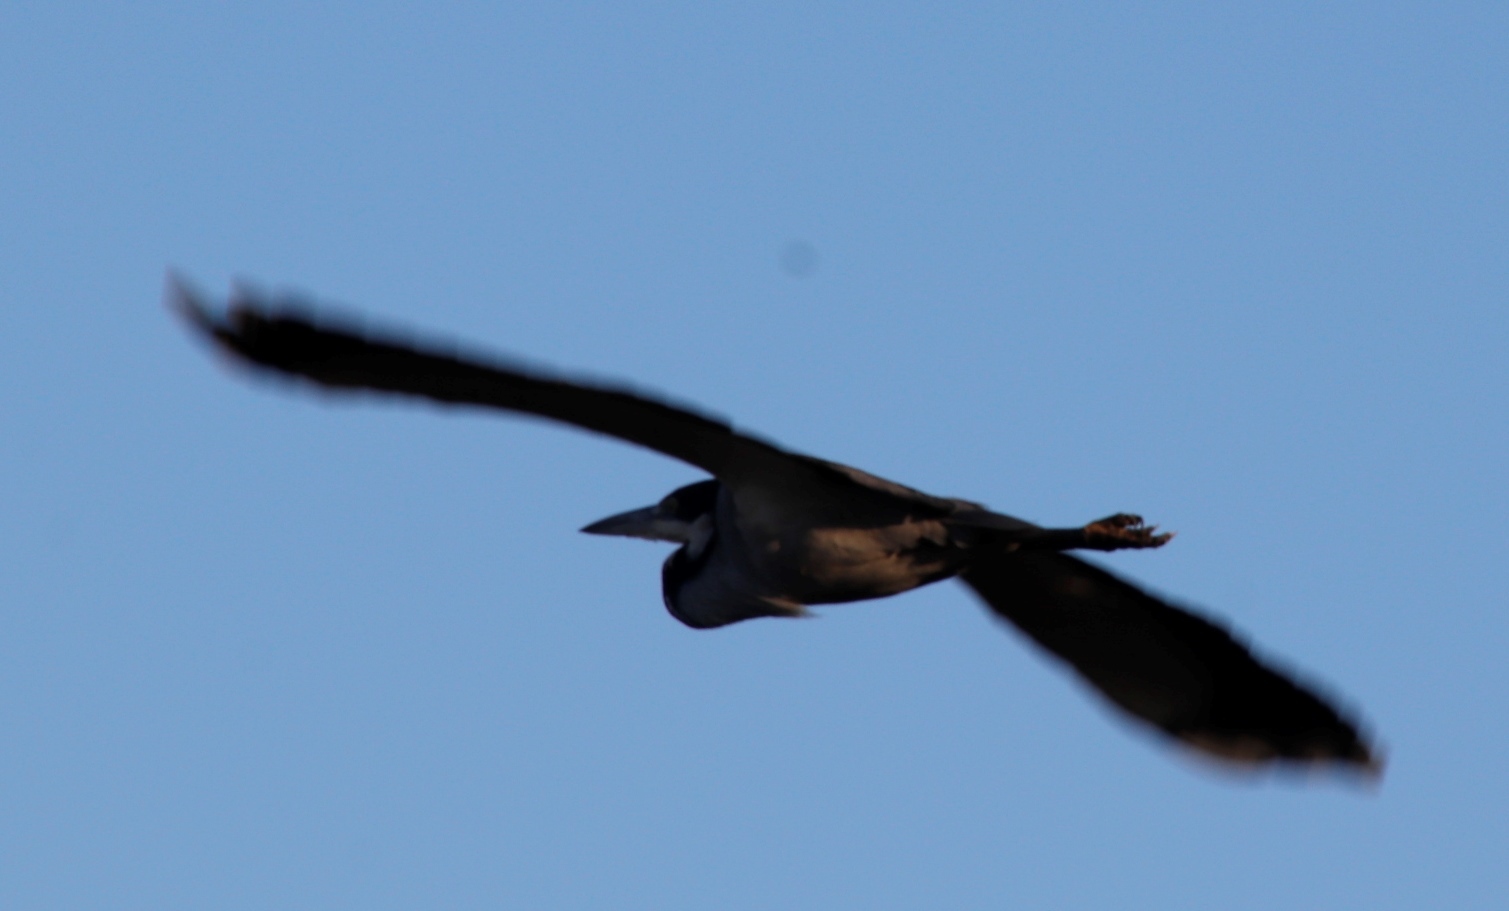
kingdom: Animalia
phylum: Chordata
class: Aves
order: Pelecaniformes
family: Ardeidae
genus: Ardea
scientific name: Ardea melanocephala
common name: Black-headed heron
